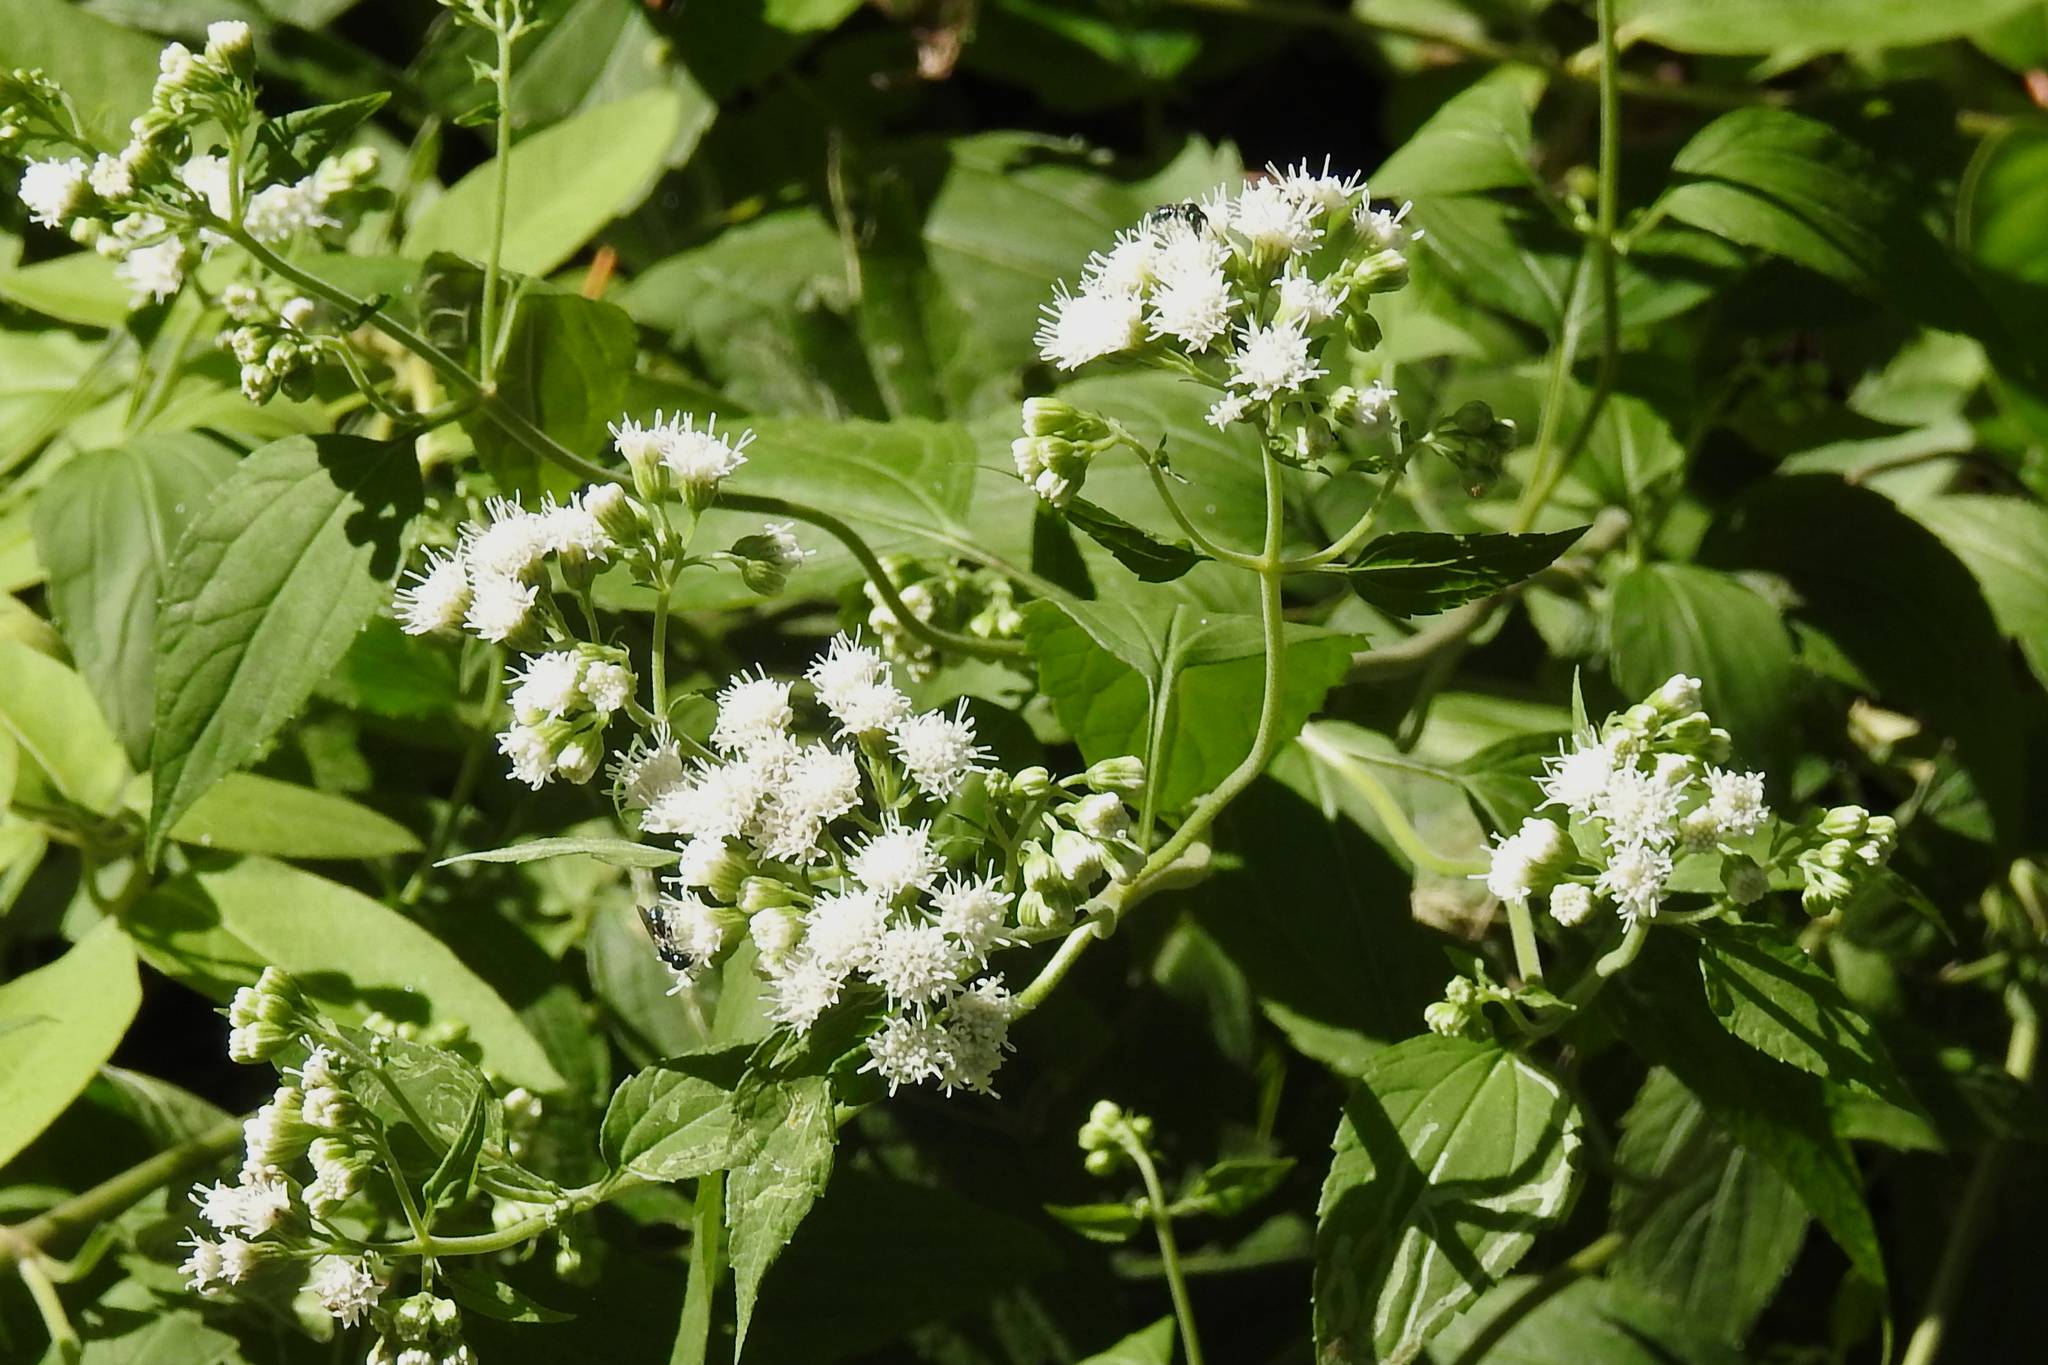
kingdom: Plantae
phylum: Tracheophyta
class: Magnoliopsida
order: Asterales
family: Asteraceae
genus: Ageratina
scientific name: Ageratina altissima
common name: White snakeroot
